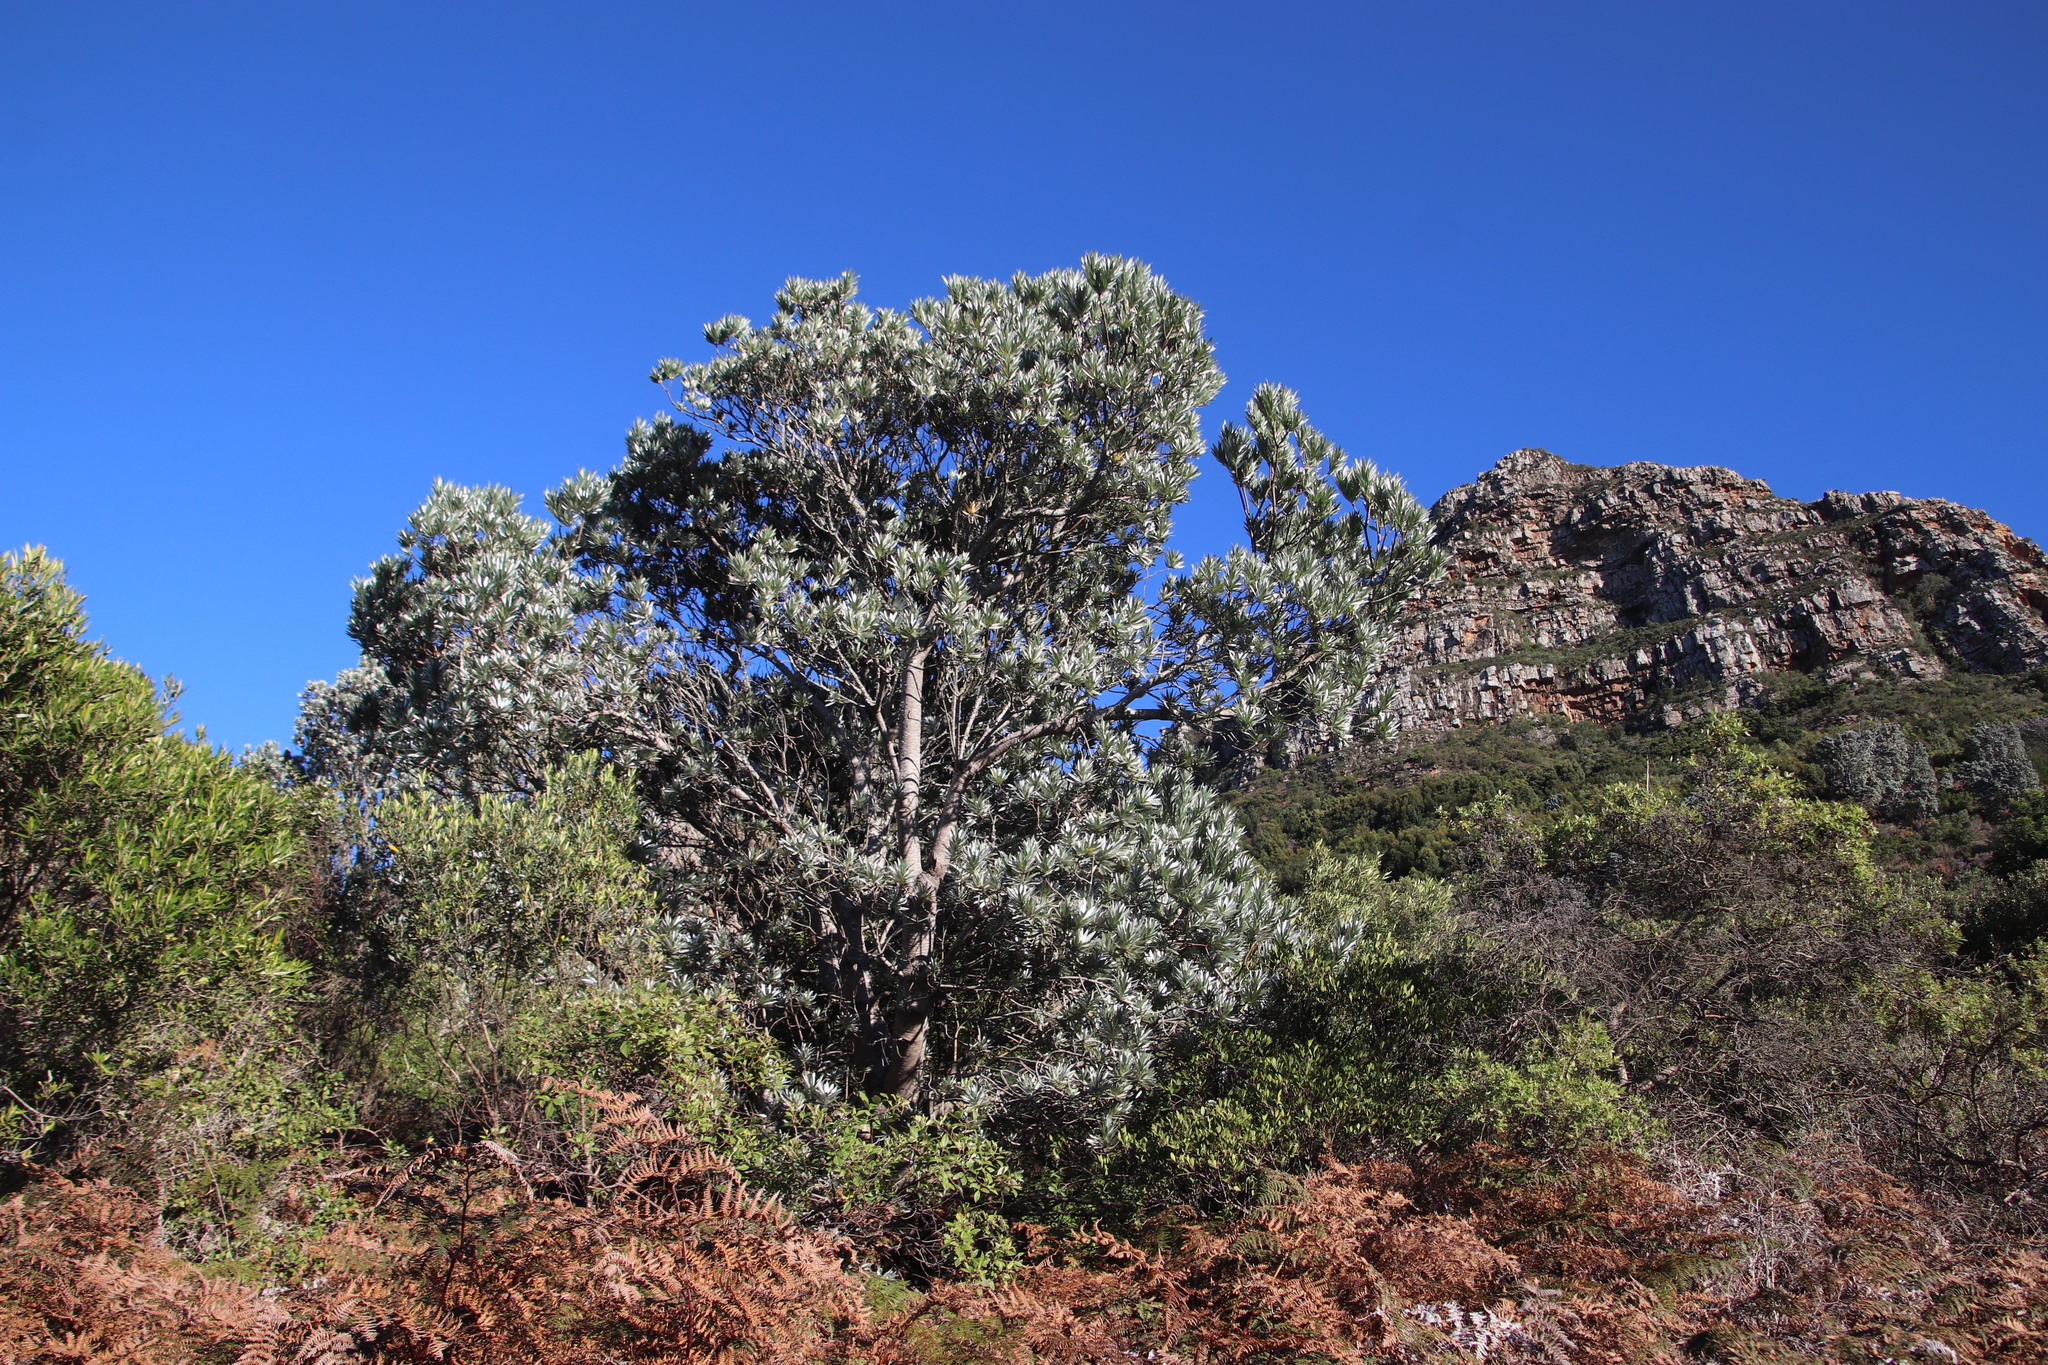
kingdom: Plantae
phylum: Tracheophyta
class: Magnoliopsida
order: Proteales
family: Proteaceae
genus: Leucadendron
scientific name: Leucadendron argenteum
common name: Cape silver tree
